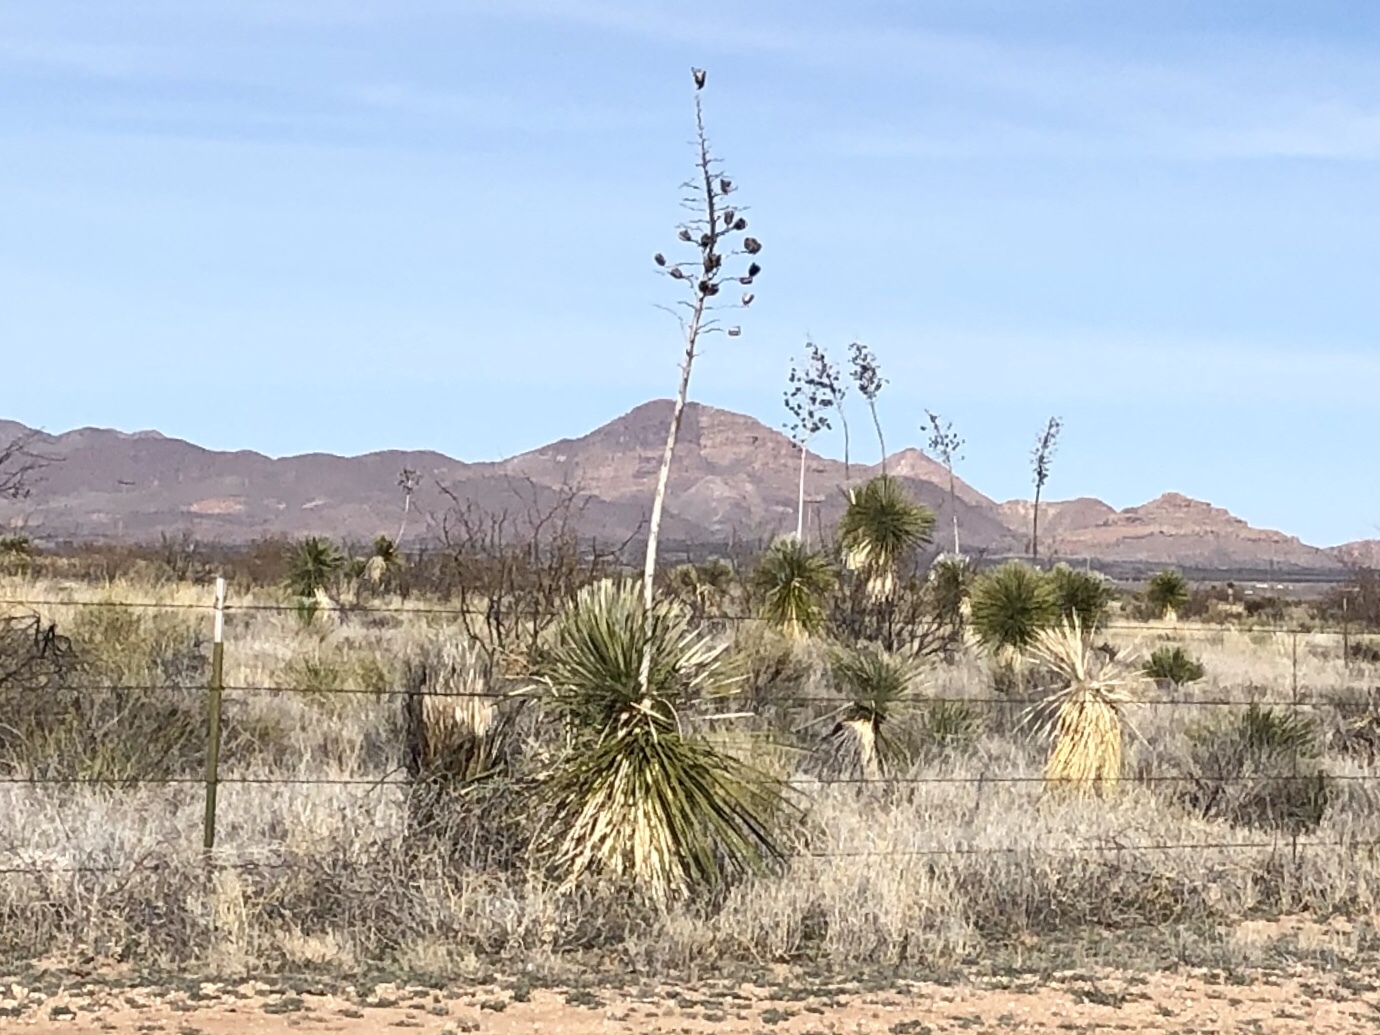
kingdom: Plantae
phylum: Tracheophyta
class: Liliopsida
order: Asparagales
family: Asparagaceae
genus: Yucca
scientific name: Yucca elata
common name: Palmella
